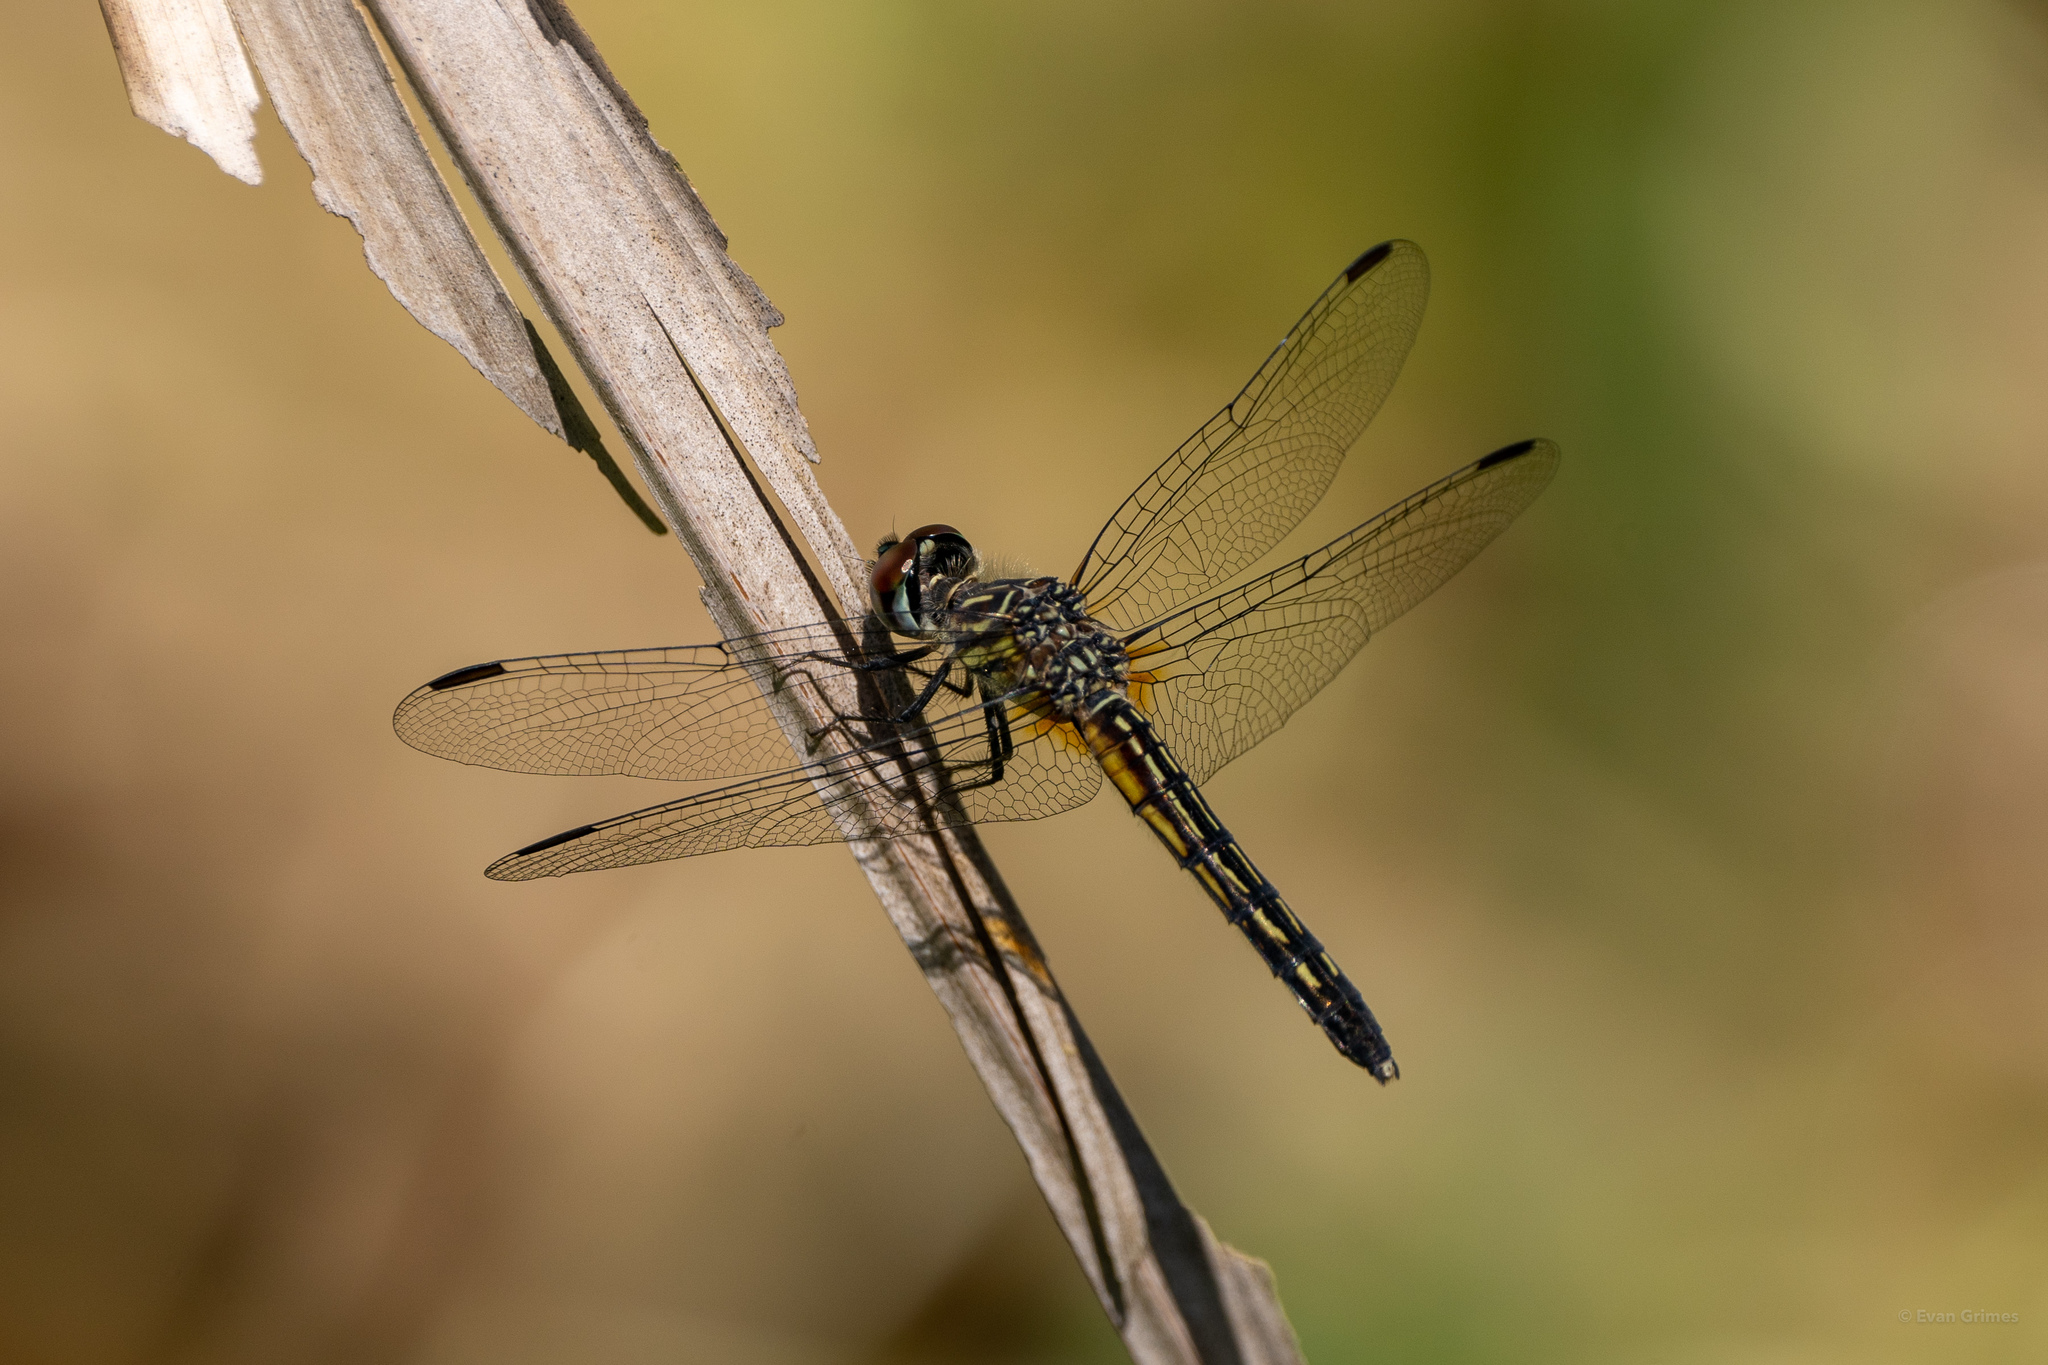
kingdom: Animalia
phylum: Arthropoda
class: Insecta
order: Odonata
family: Libellulidae
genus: Pachydiplax
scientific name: Pachydiplax longipennis
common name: Blue dasher
